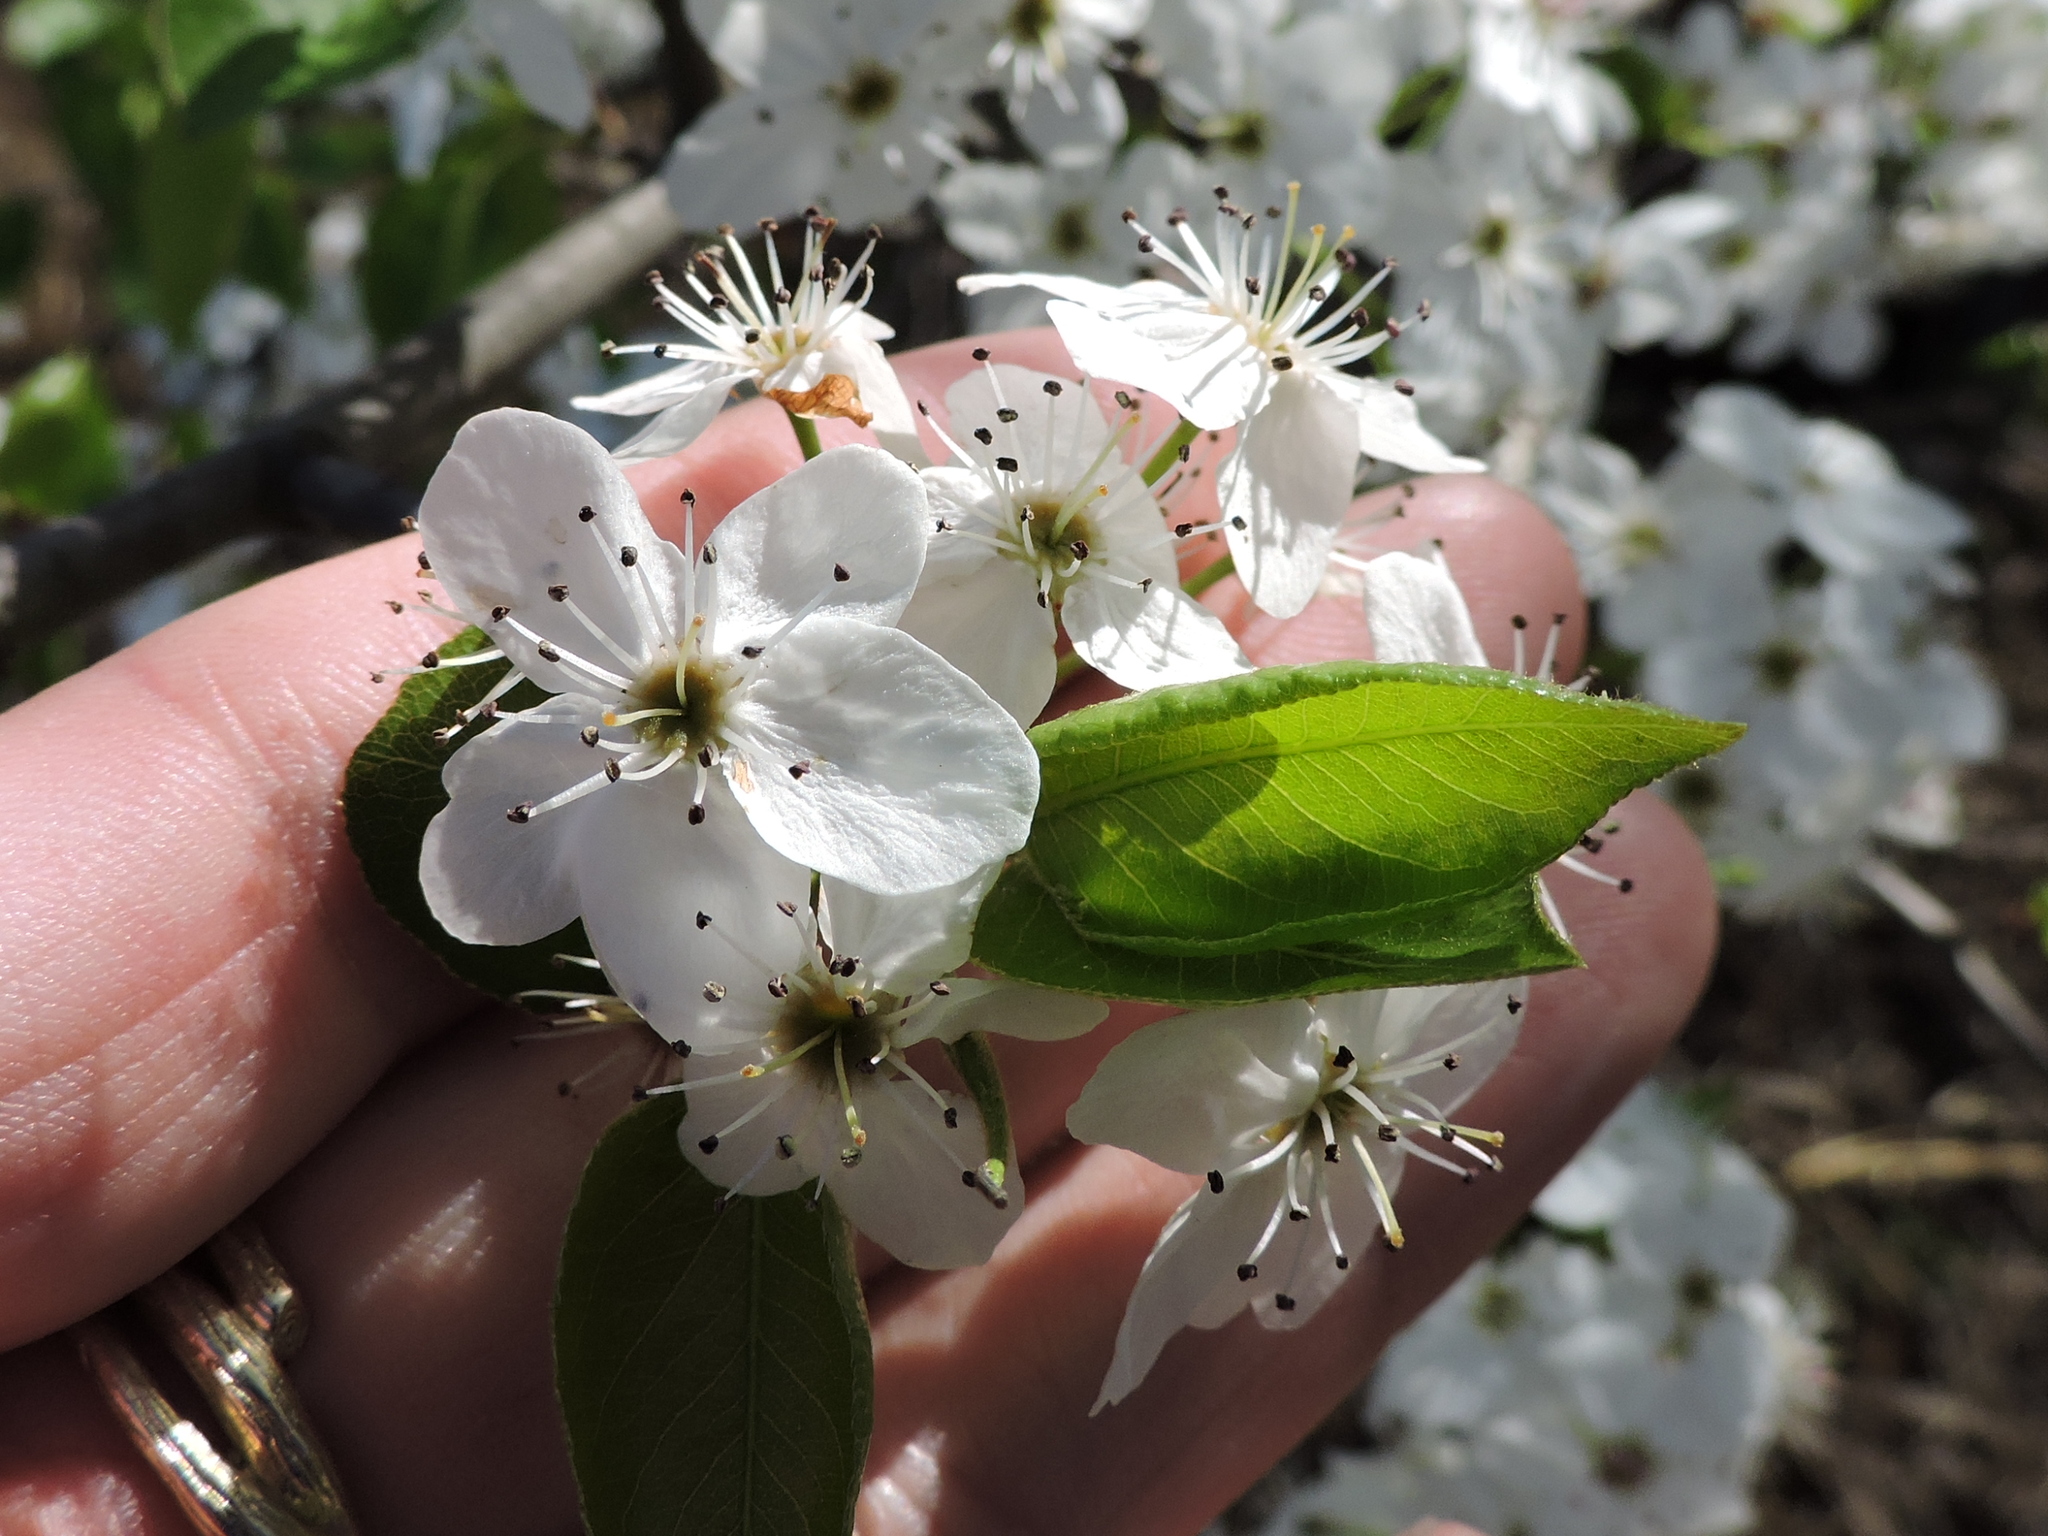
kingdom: Plantae
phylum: Tracheophyta
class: Magnoliopsida
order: Rosales
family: Rosaceae
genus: Pyrus
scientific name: Pyrus calleryana
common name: Callery pear
